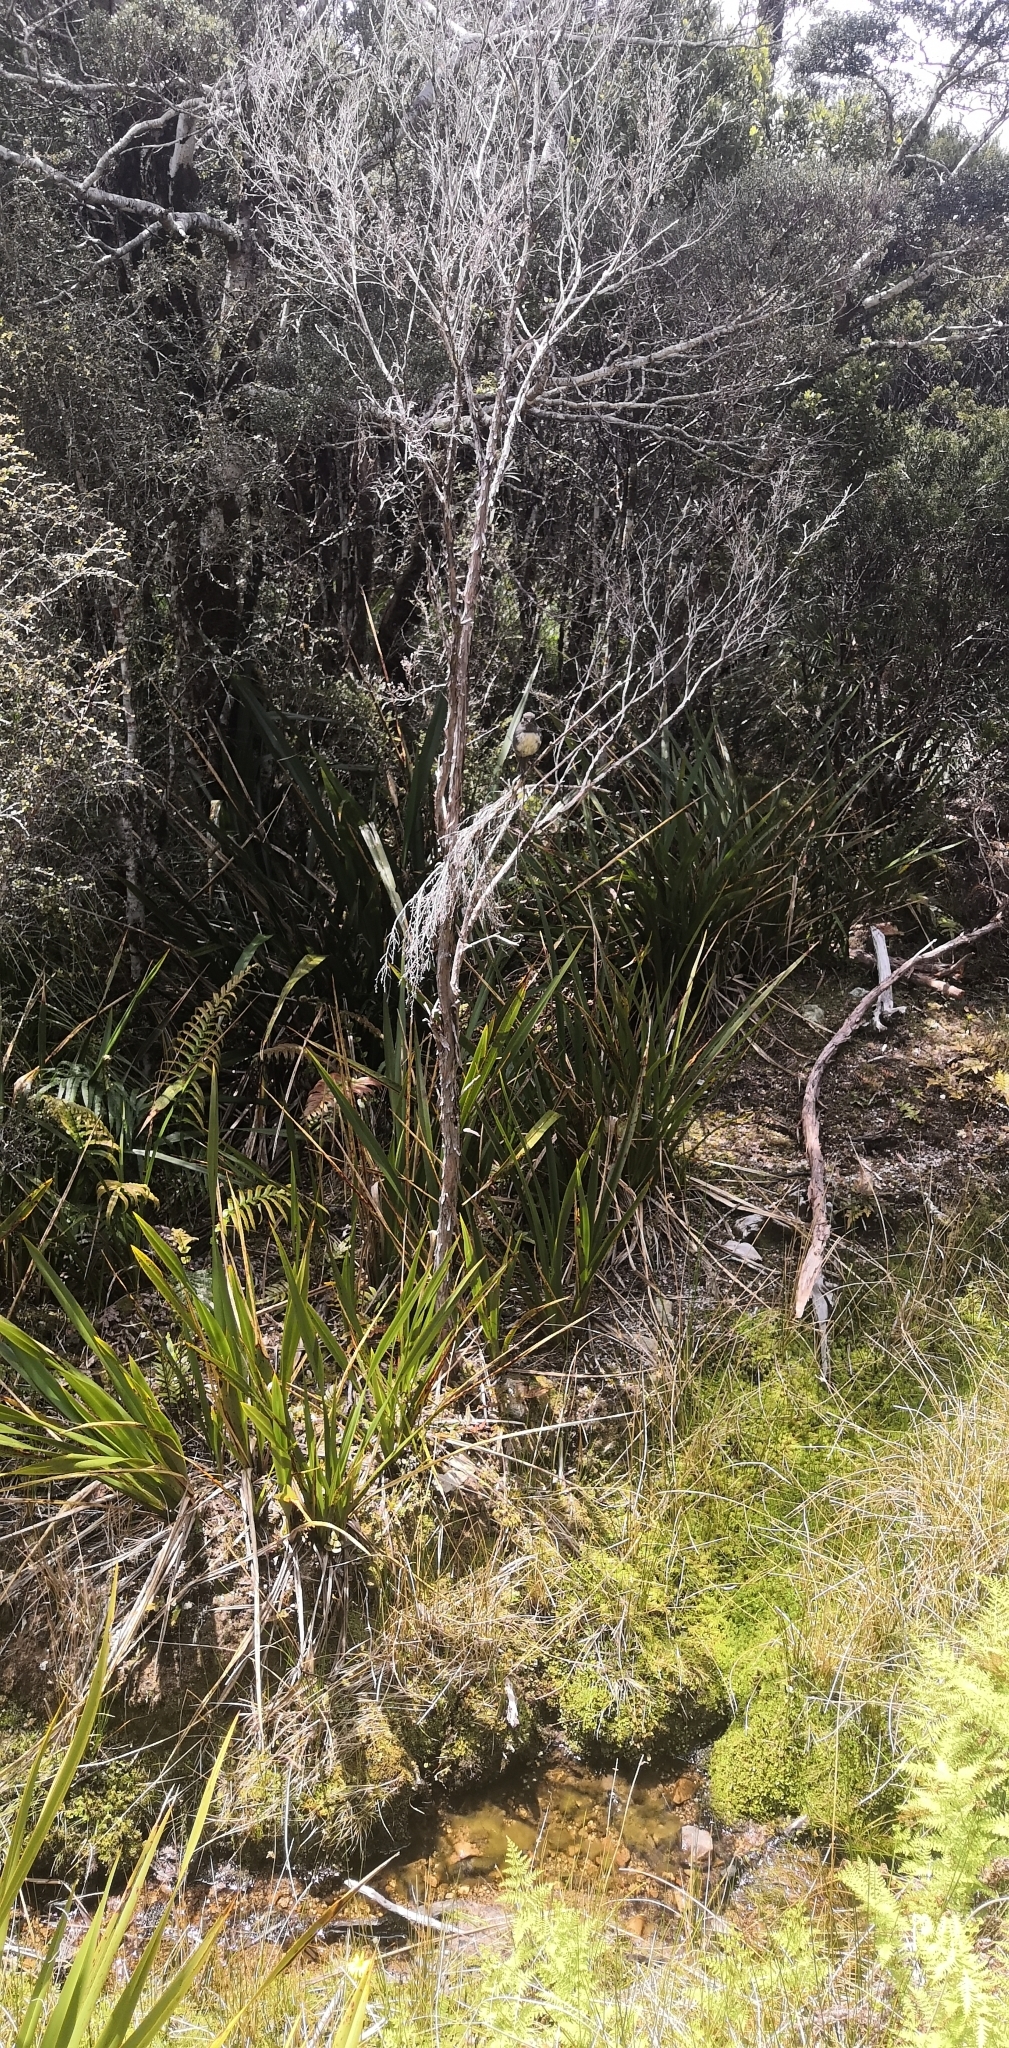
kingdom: Animalia
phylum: Chordata
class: Aves
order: Passeriformes
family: Petroicidae
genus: Petroica
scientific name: Petroica australis
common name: New zealand robin
